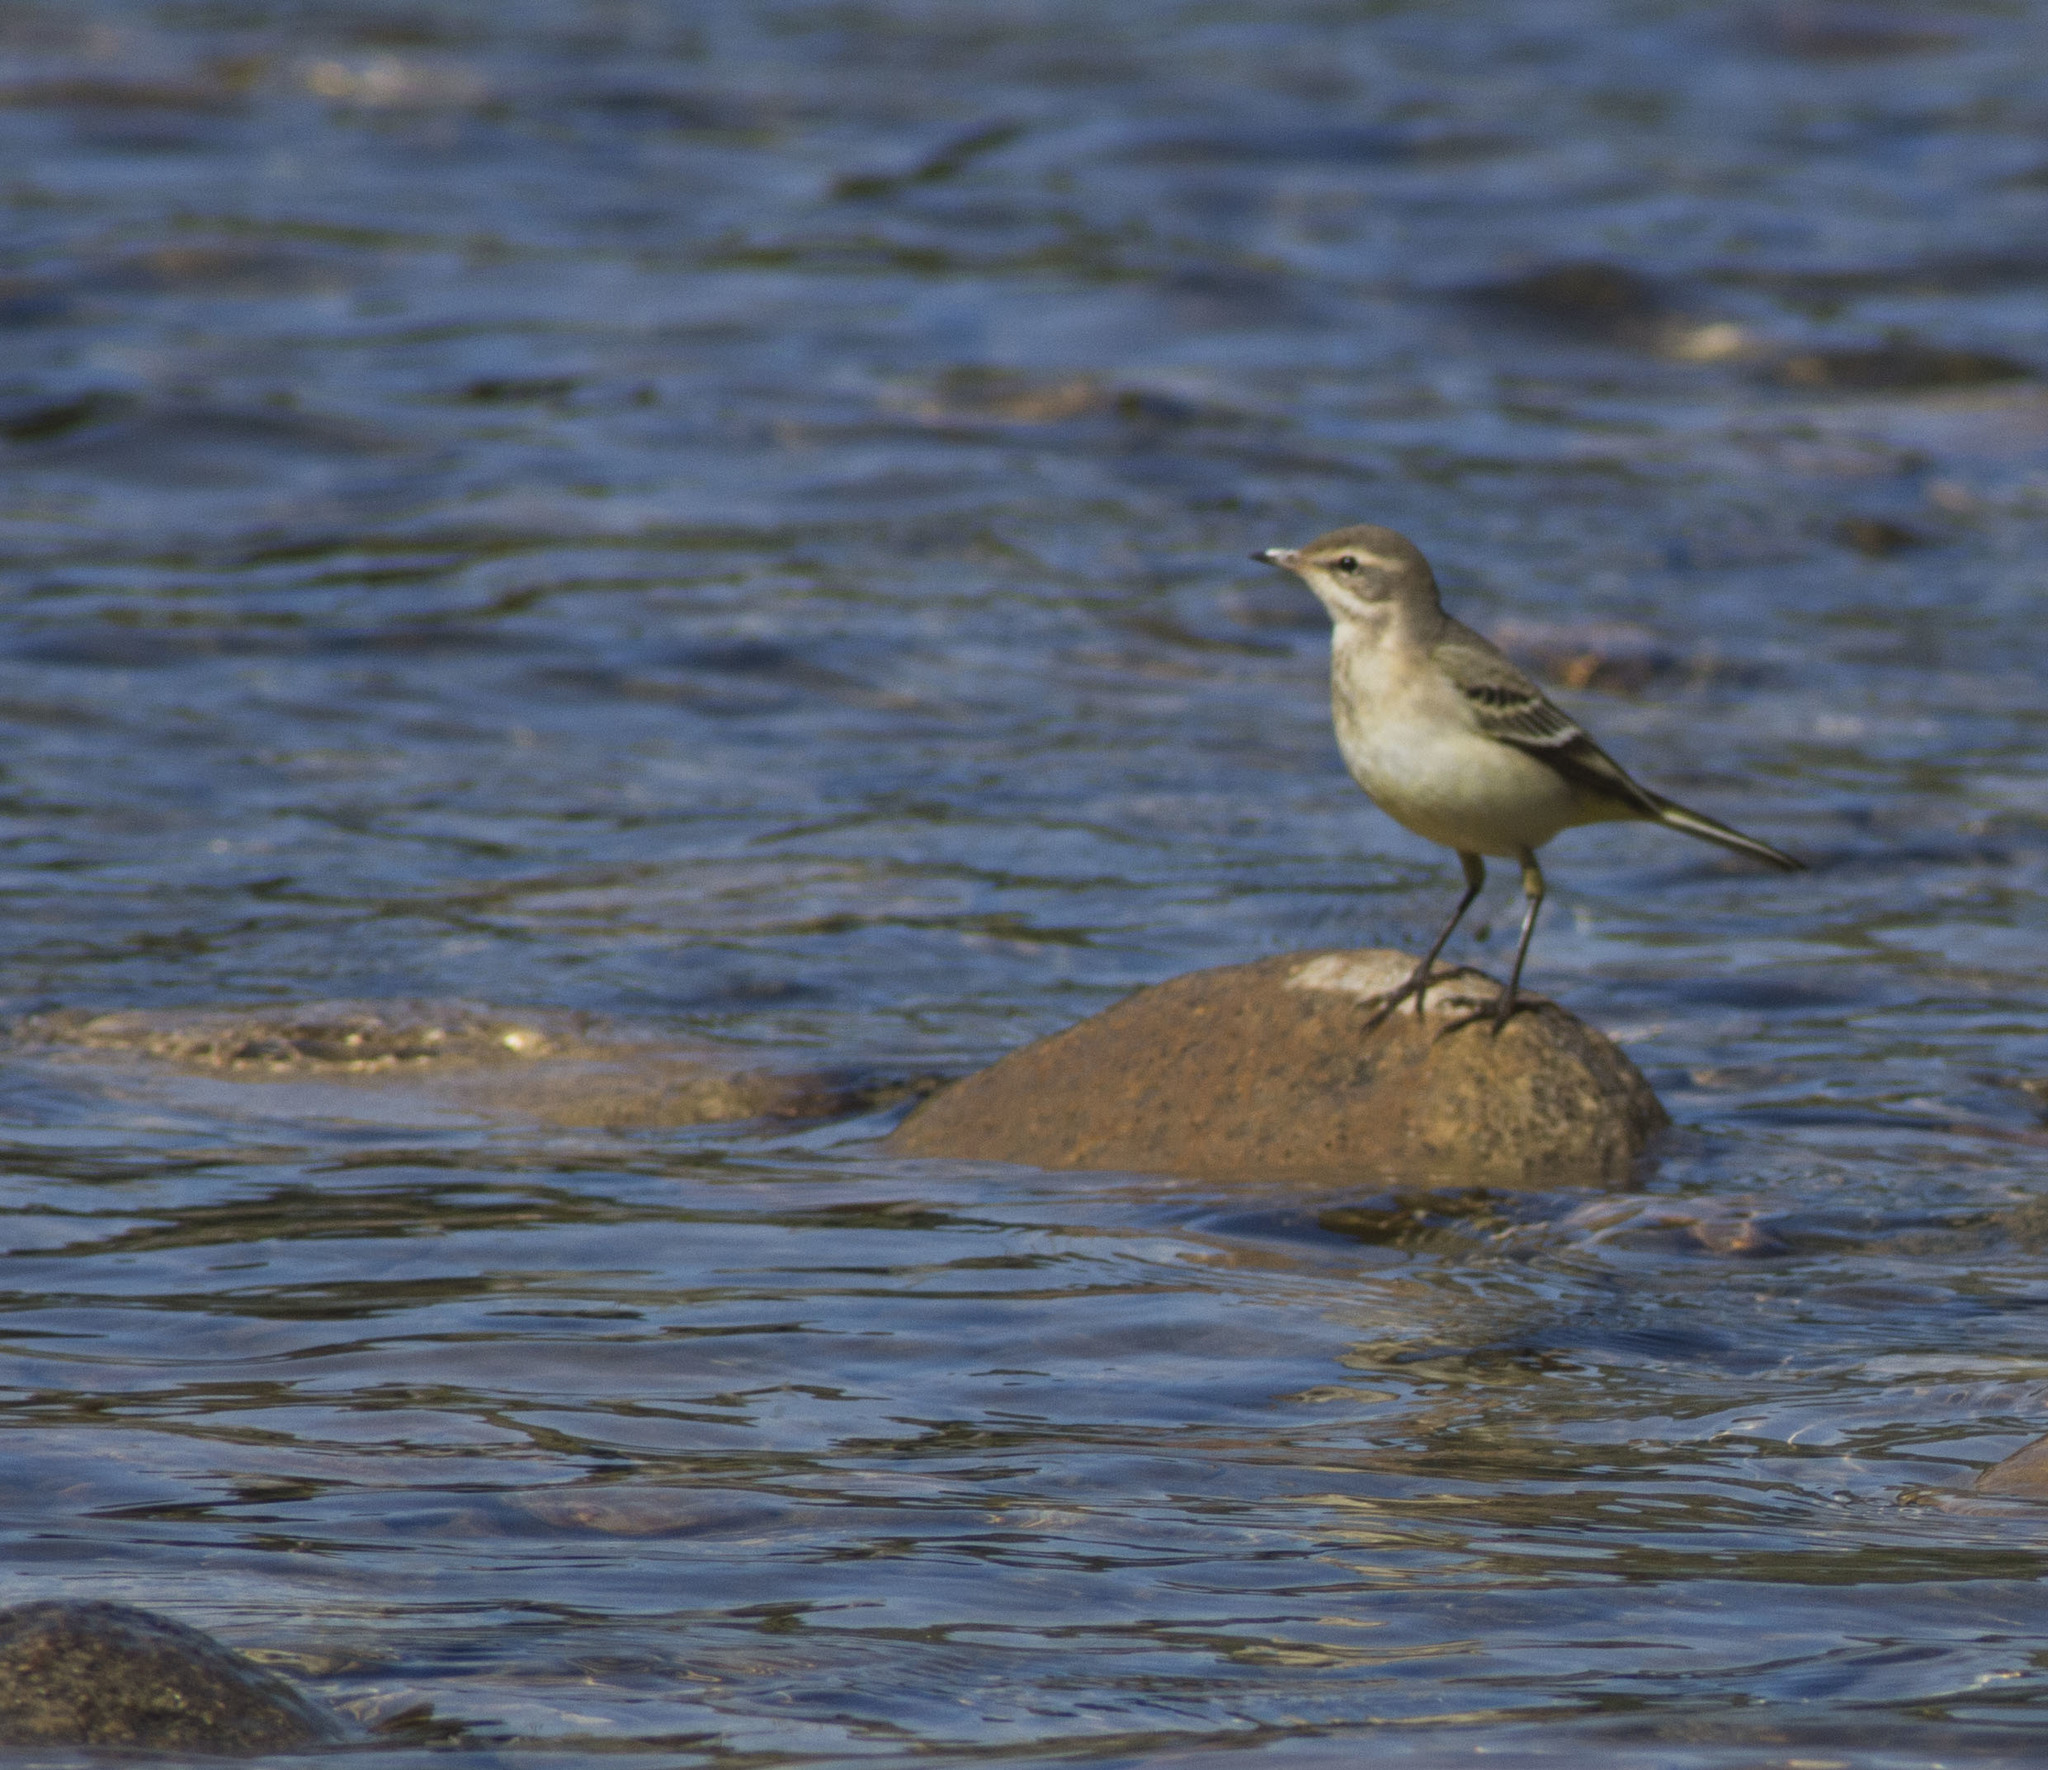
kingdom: Animalia
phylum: Chordata
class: Aves
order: Passeriformes
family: Motacillidae
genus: Motacilla
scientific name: Motacilla flava
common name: Western yellow wagtail
